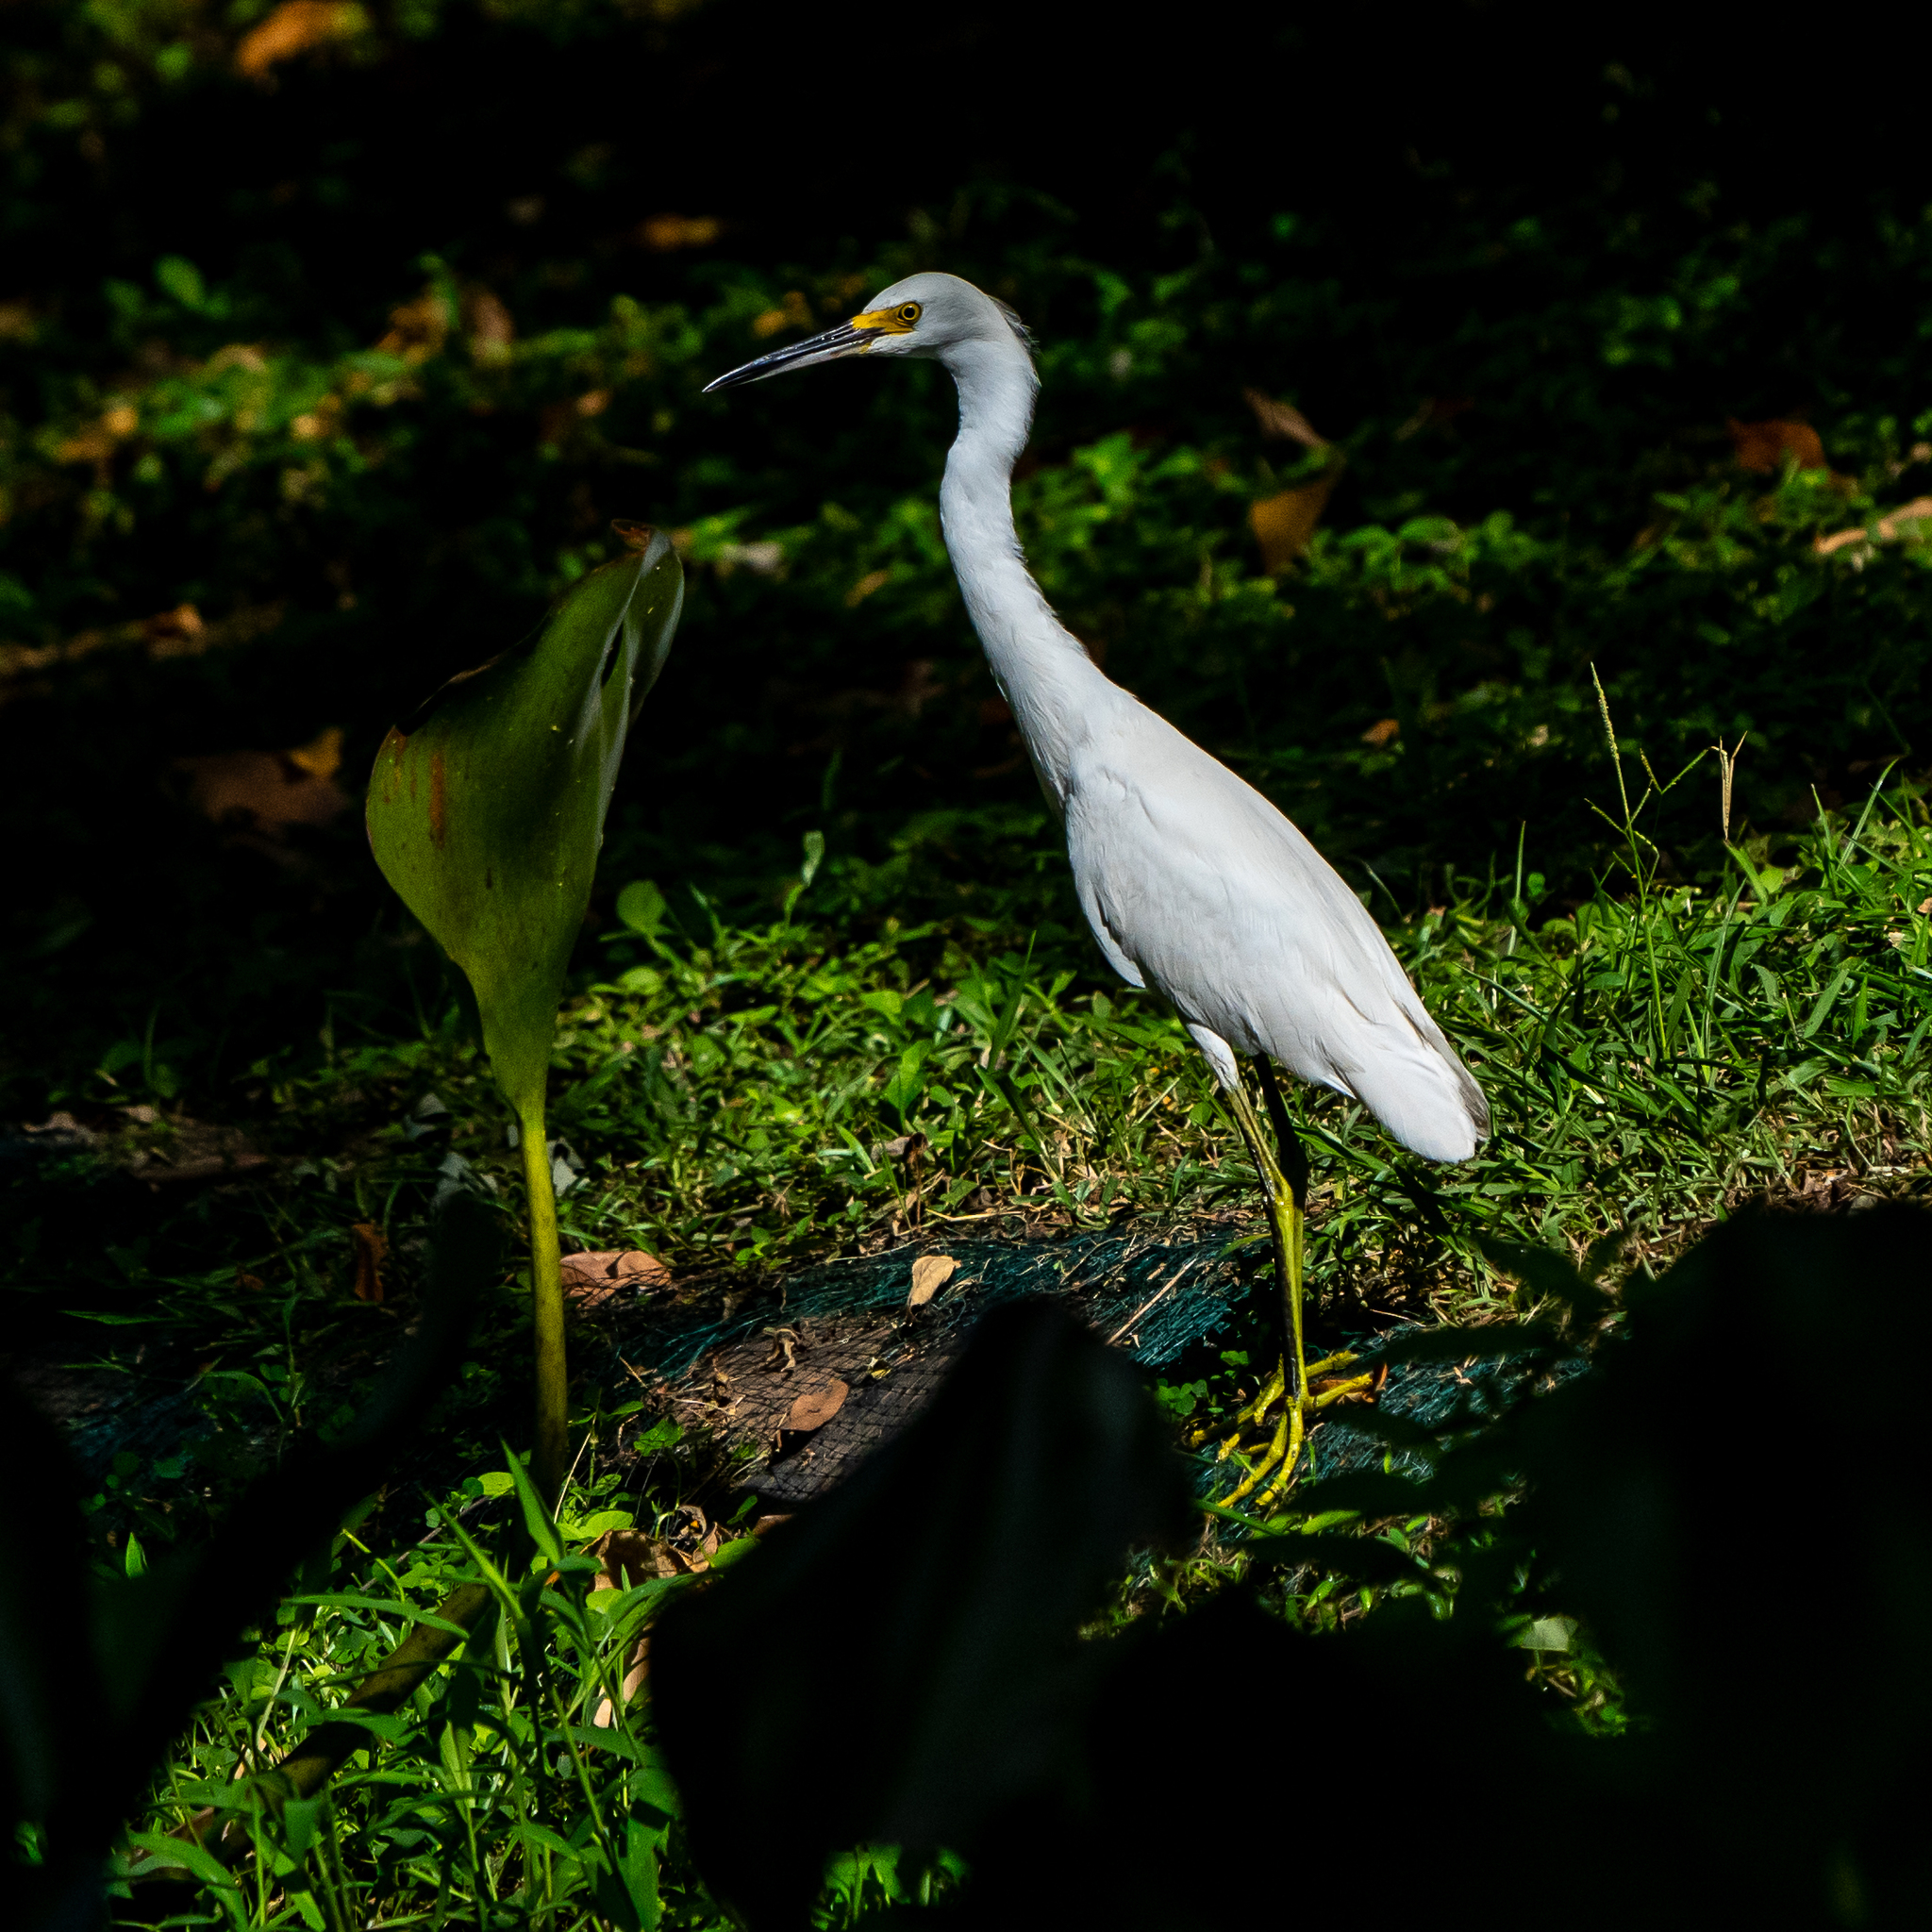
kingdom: Animalia
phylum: Chordata
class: Aves
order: Pelecaniformes
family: Ardeidae
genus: Egretta
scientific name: Egretta thula
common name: Snowy egret
